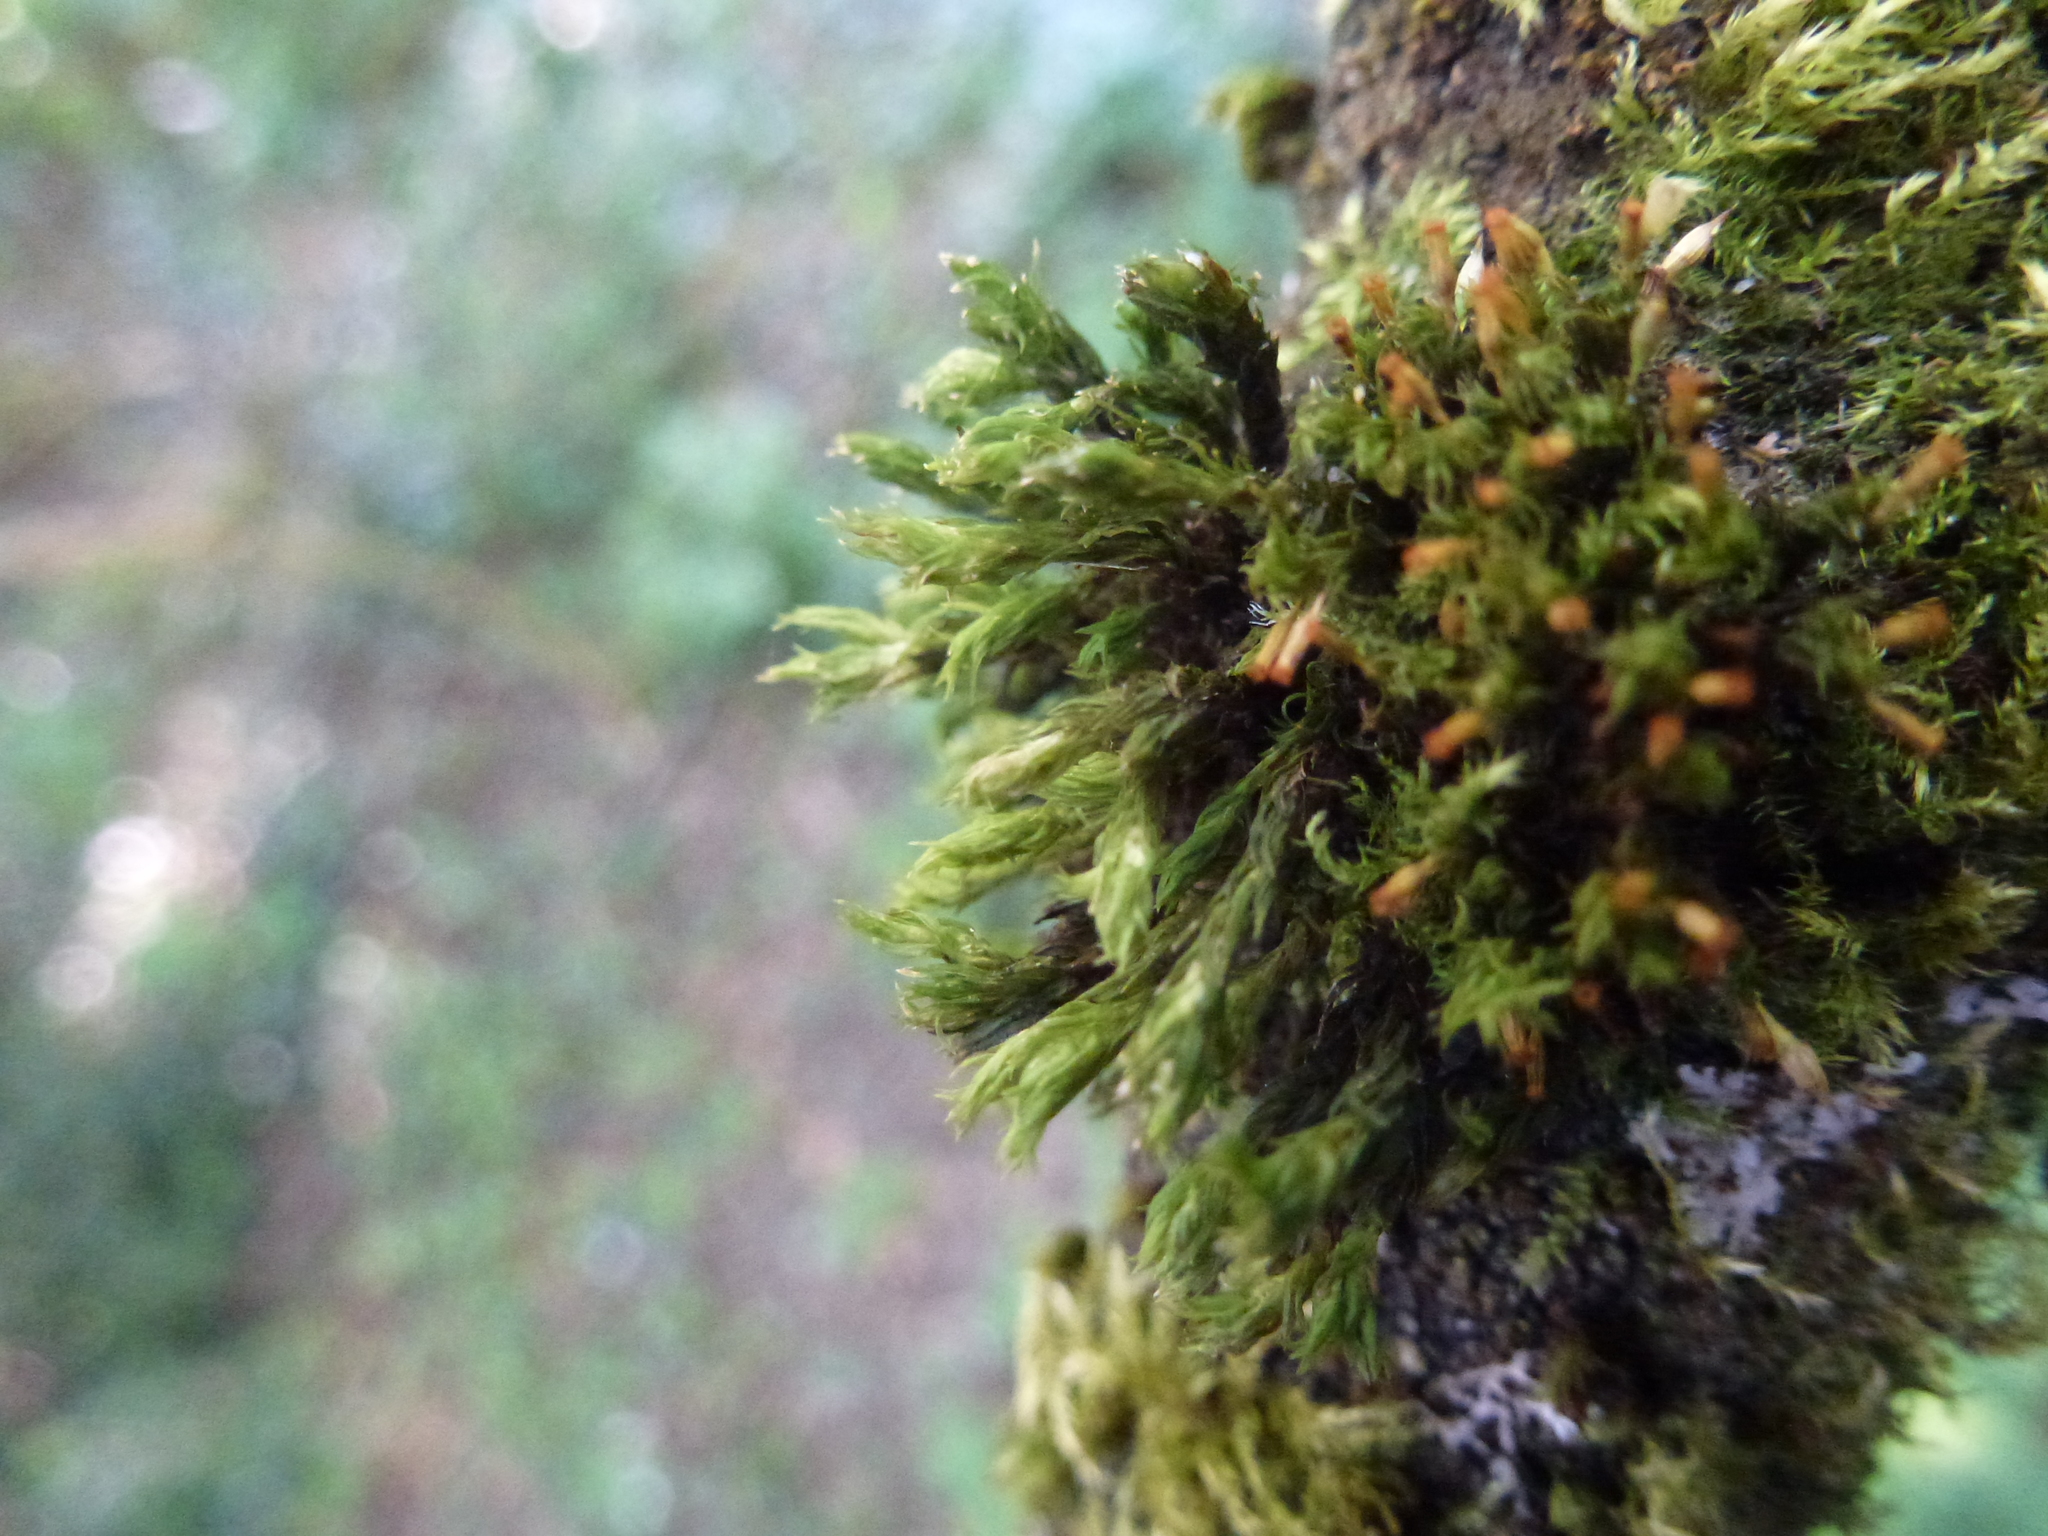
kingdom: Plantae
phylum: Bryophyta
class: Bryopsida
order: Orthotrichales
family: Orthotrichaceae
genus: Orthotrichum
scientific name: Orthotrichum pulchellum
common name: Elegant bristle-moss
